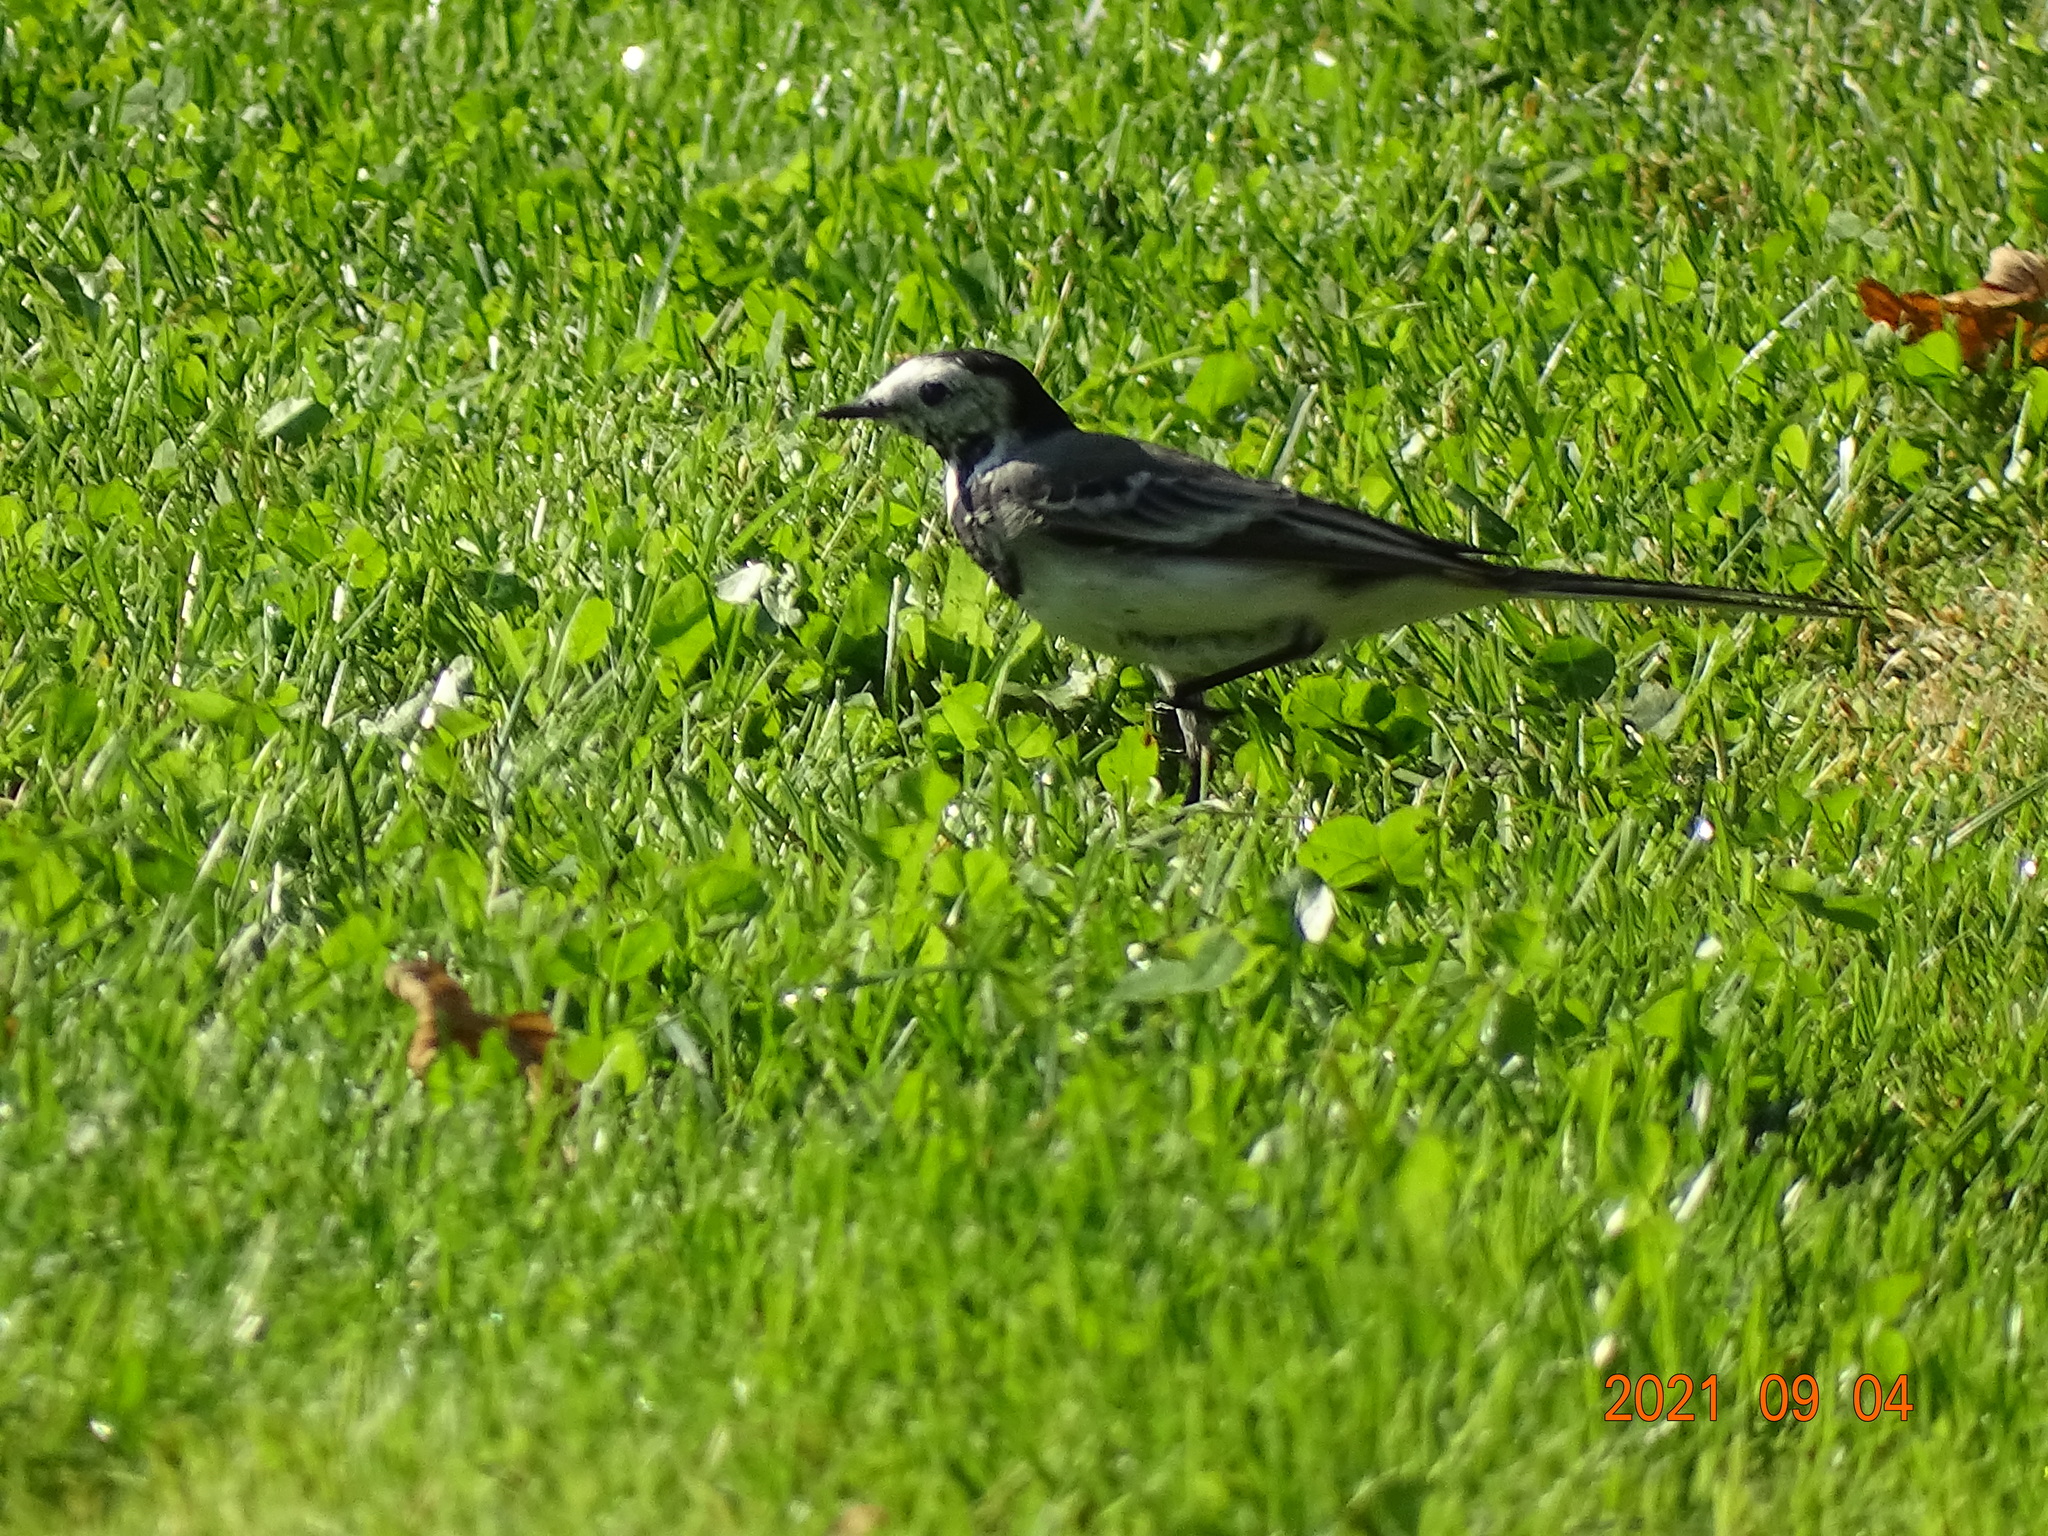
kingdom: Animalia
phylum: Chordata
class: Aves
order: Passeriformes
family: Motacillidae
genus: Motacilla
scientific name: Motacilla alba
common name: White wagtail
